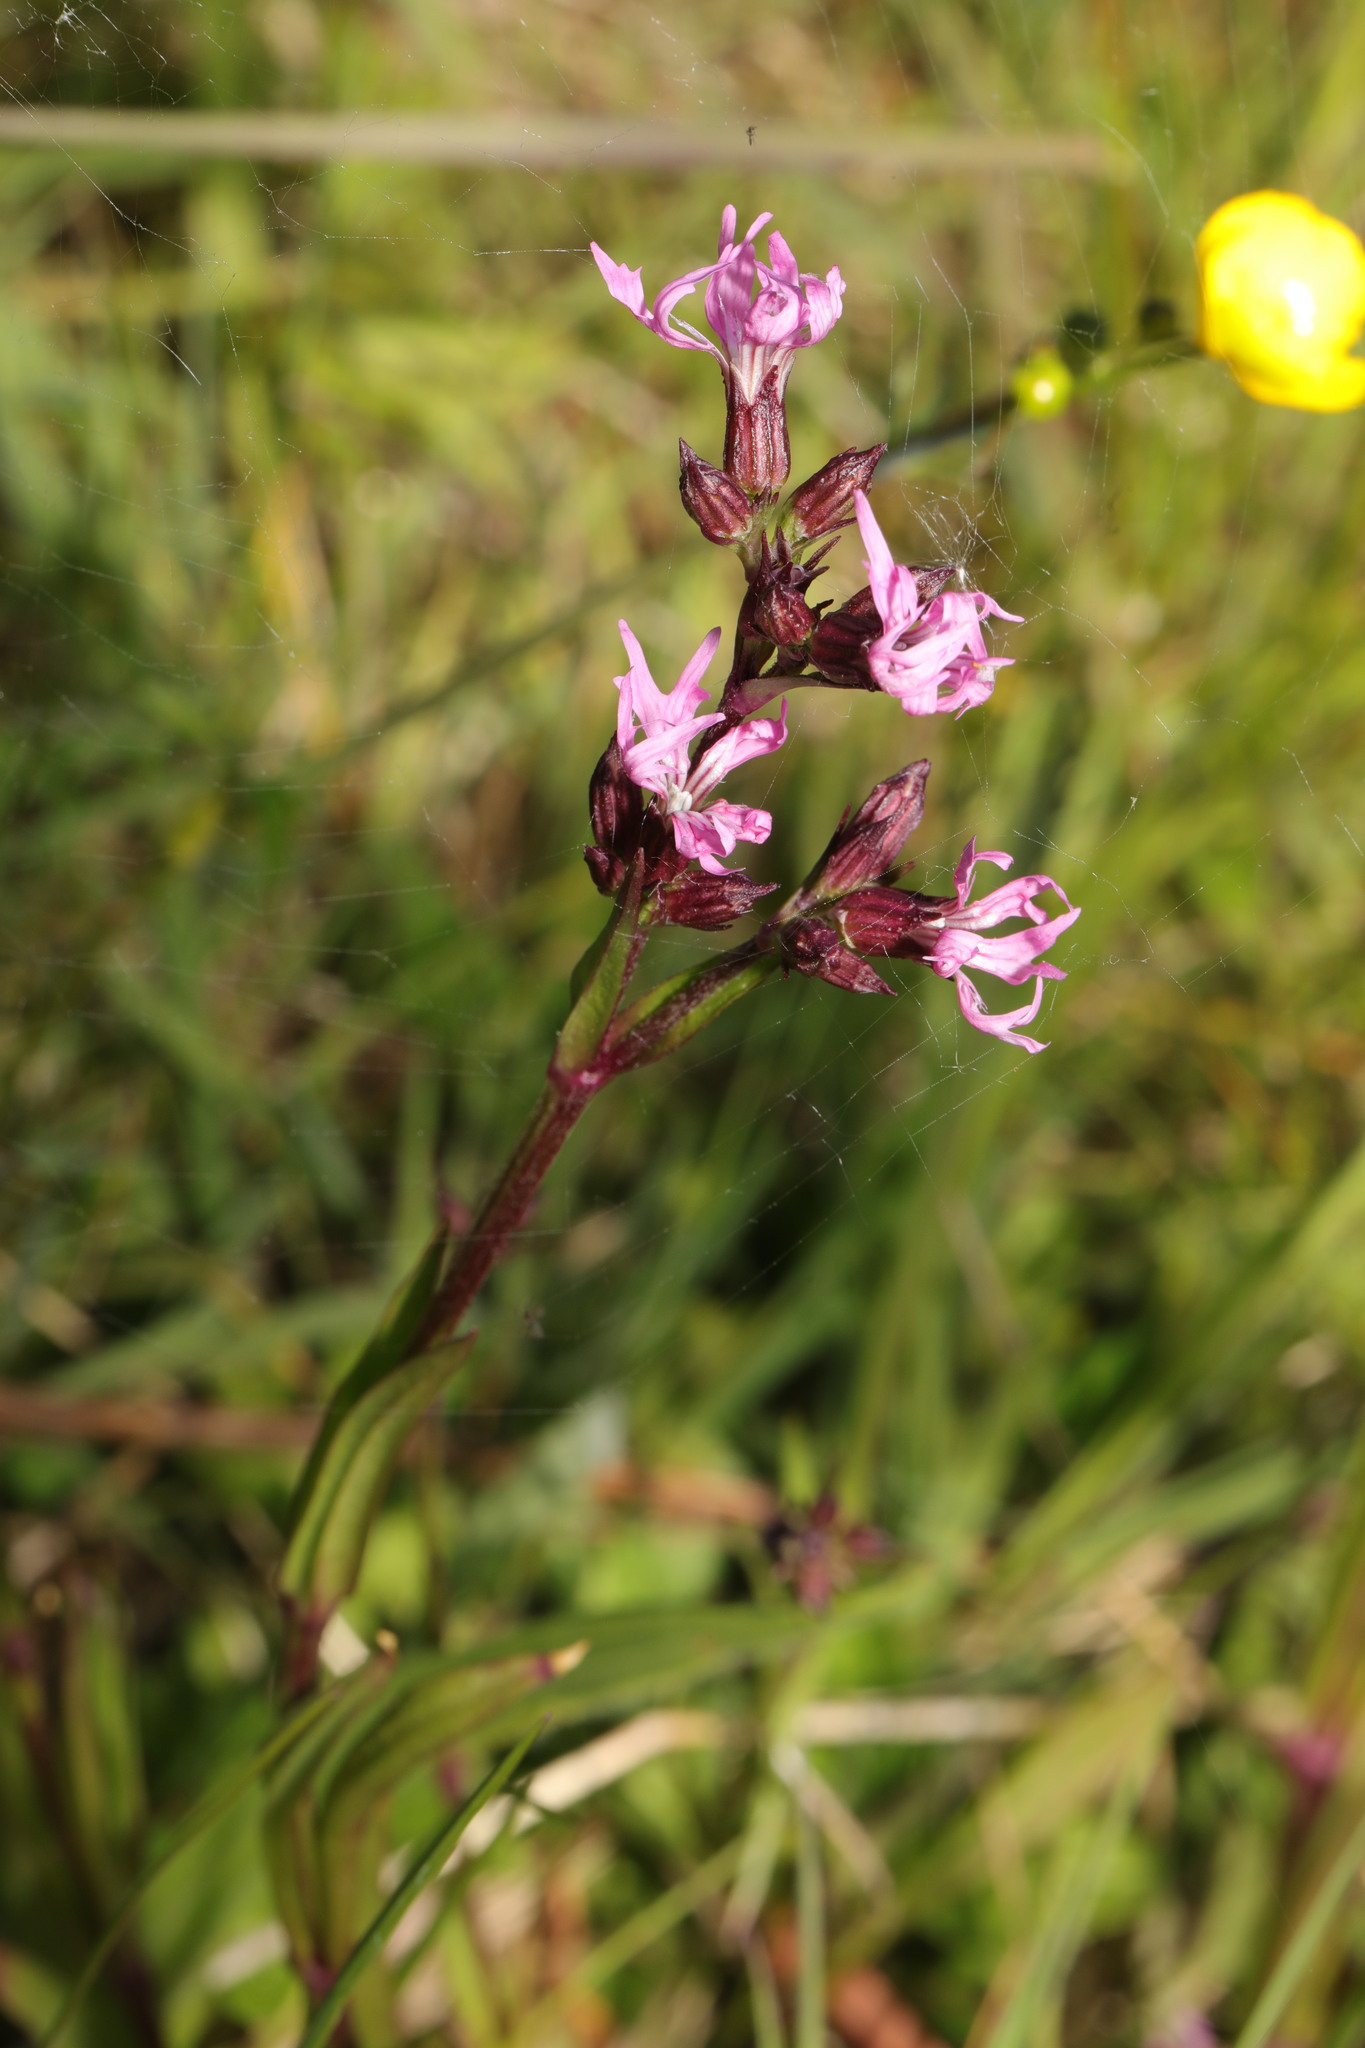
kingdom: Plantae
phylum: Tracheophyta
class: Magnoliopsida
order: Caryophyllales
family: Caryophyllaceae
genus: Silene
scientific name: Silene flos-cuculi
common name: Ragged-robin
